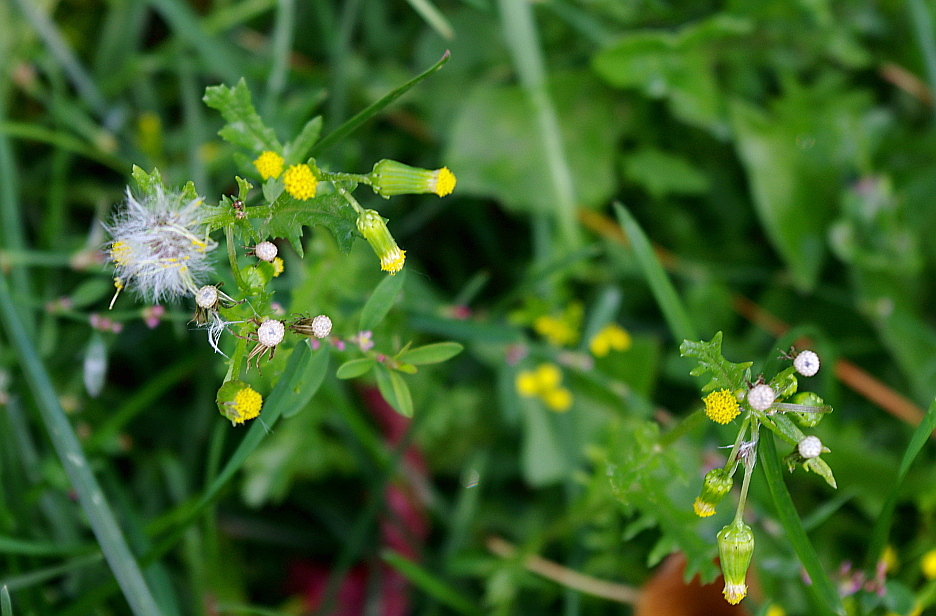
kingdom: Plantae
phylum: Tracheophyta
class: Magnoliopsida
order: Asterales
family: Asteraceae
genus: Senecio
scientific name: Senecio vulgaris
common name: Old-man-in-the-spring
